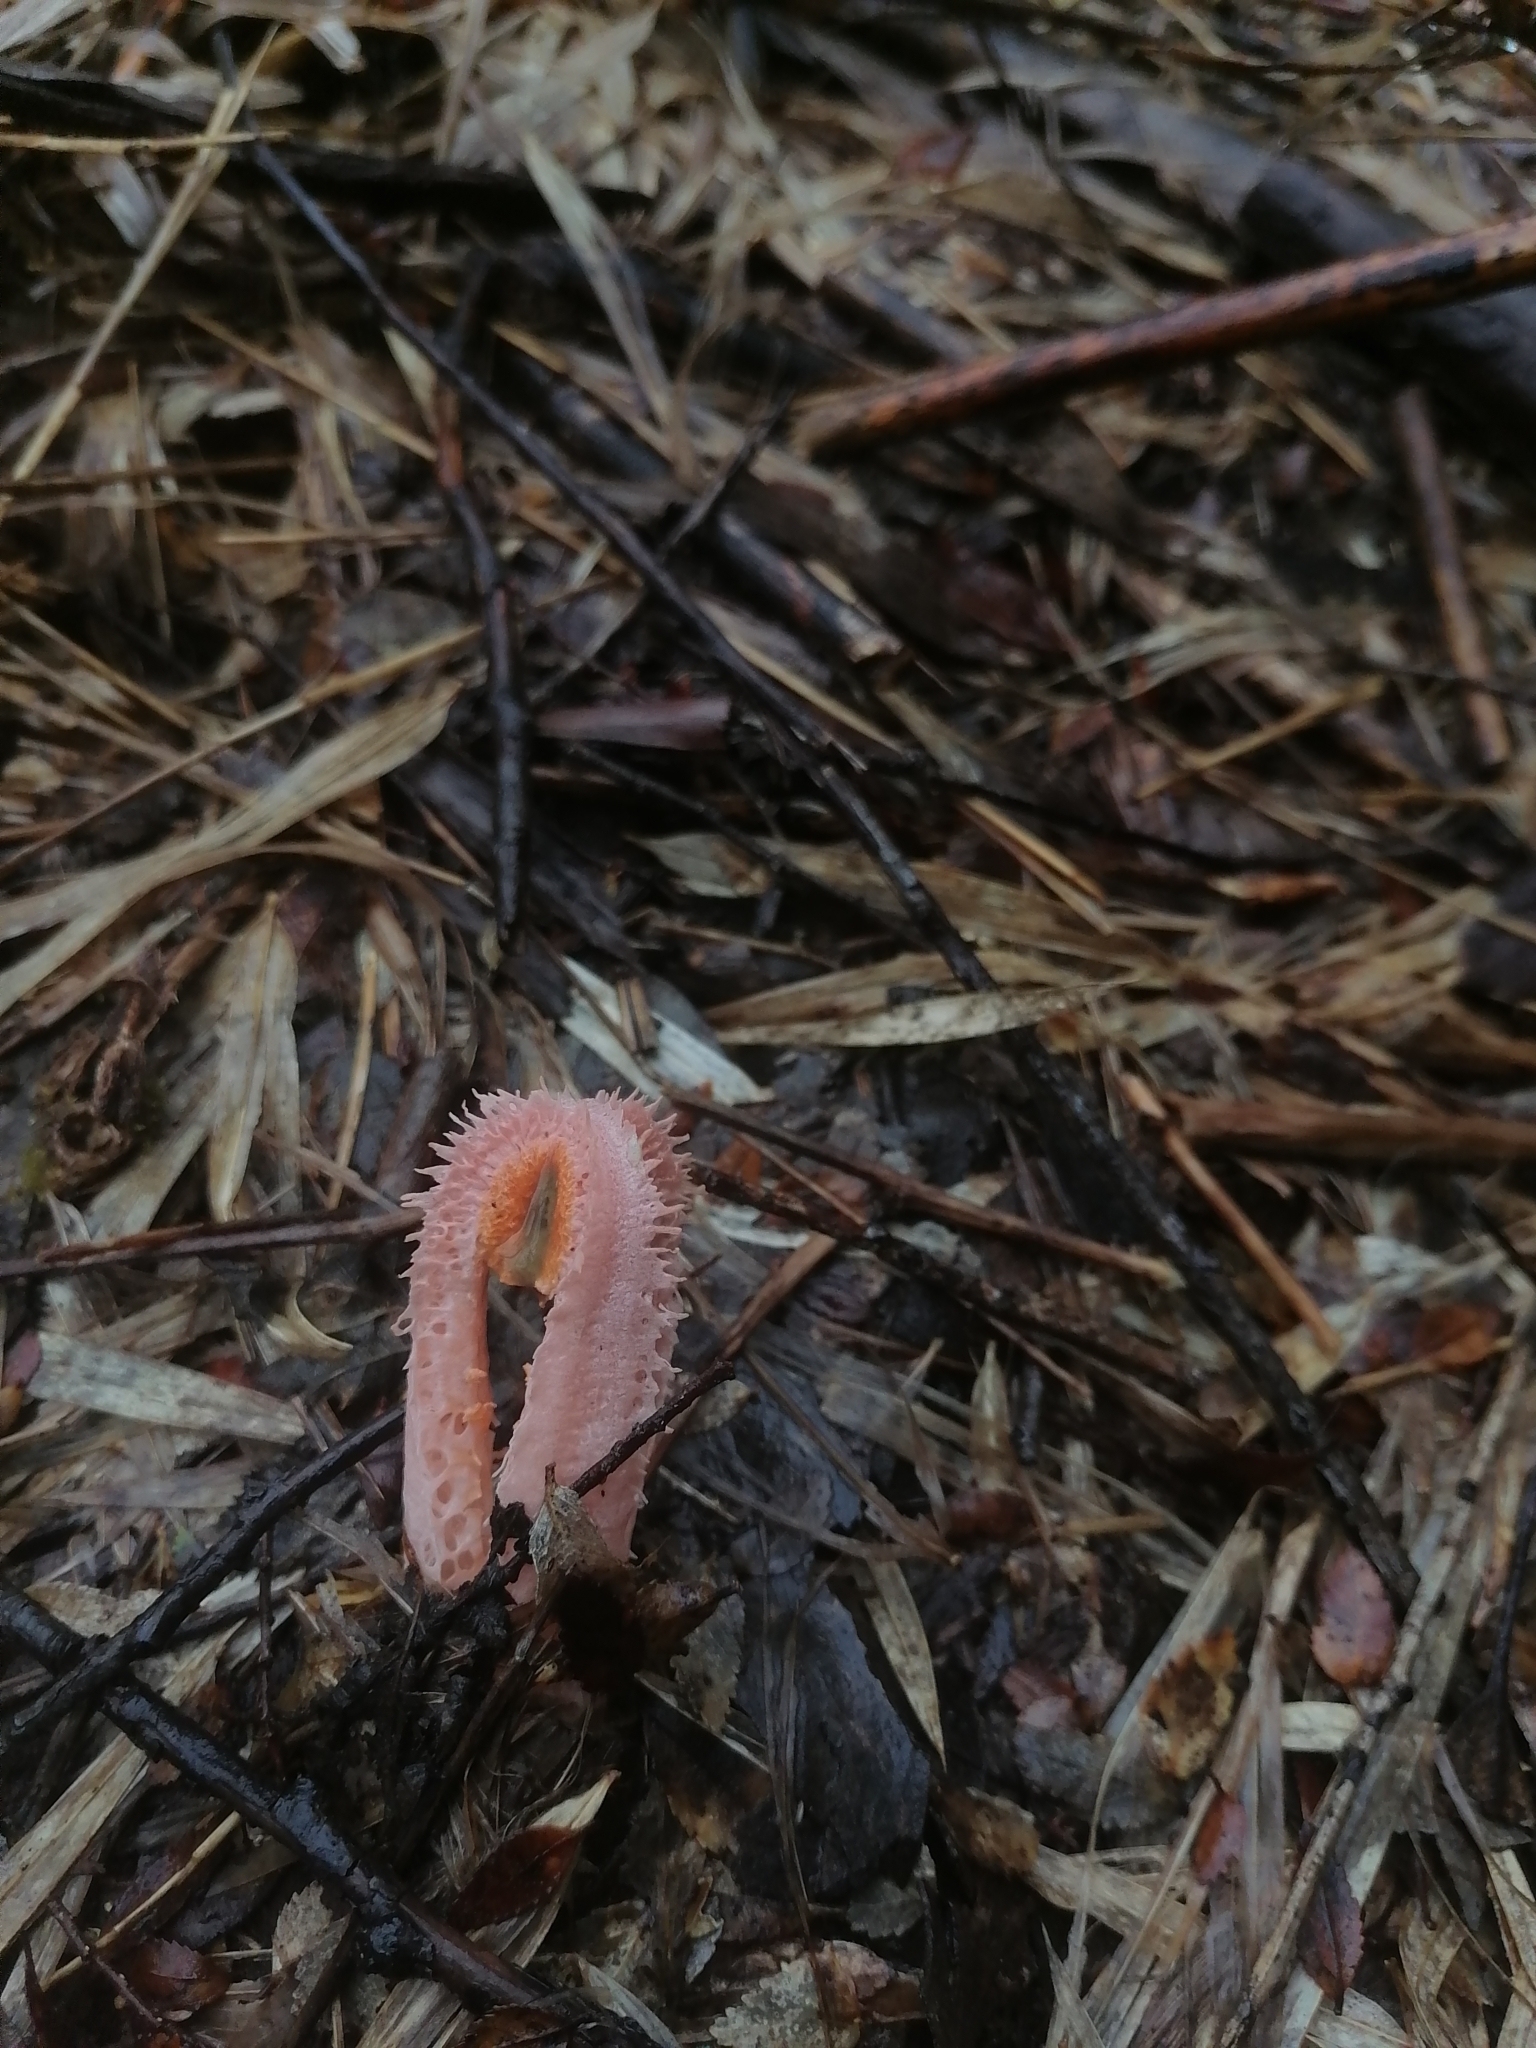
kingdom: Fungi
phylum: Basidiomycota
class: Agaricomycetes
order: Phallales
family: Phallaceae
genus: Laternea
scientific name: Laternea pusilla
